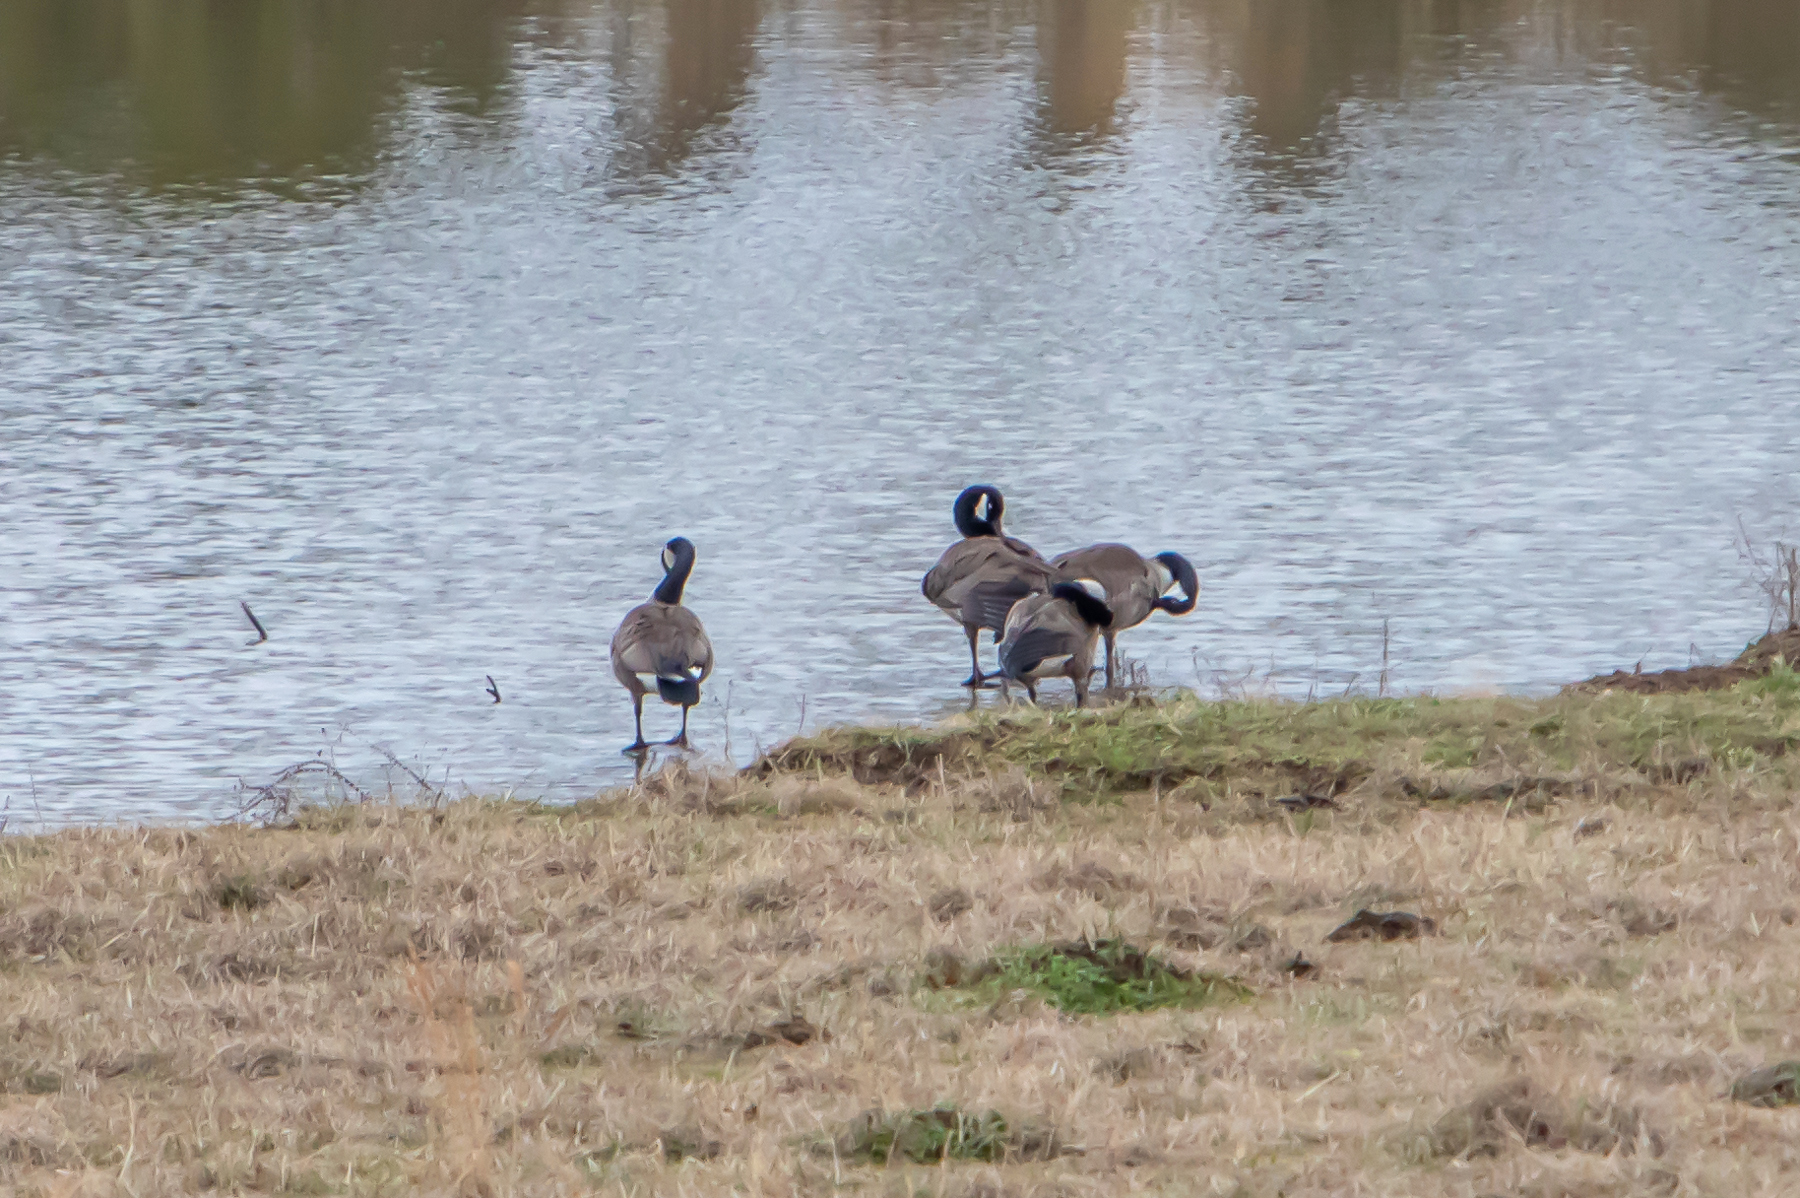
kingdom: Animalia
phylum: Chordata
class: Aves
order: Anseriformes
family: Anatidae
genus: Branta
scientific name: Branta canadensis
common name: Canada goose
